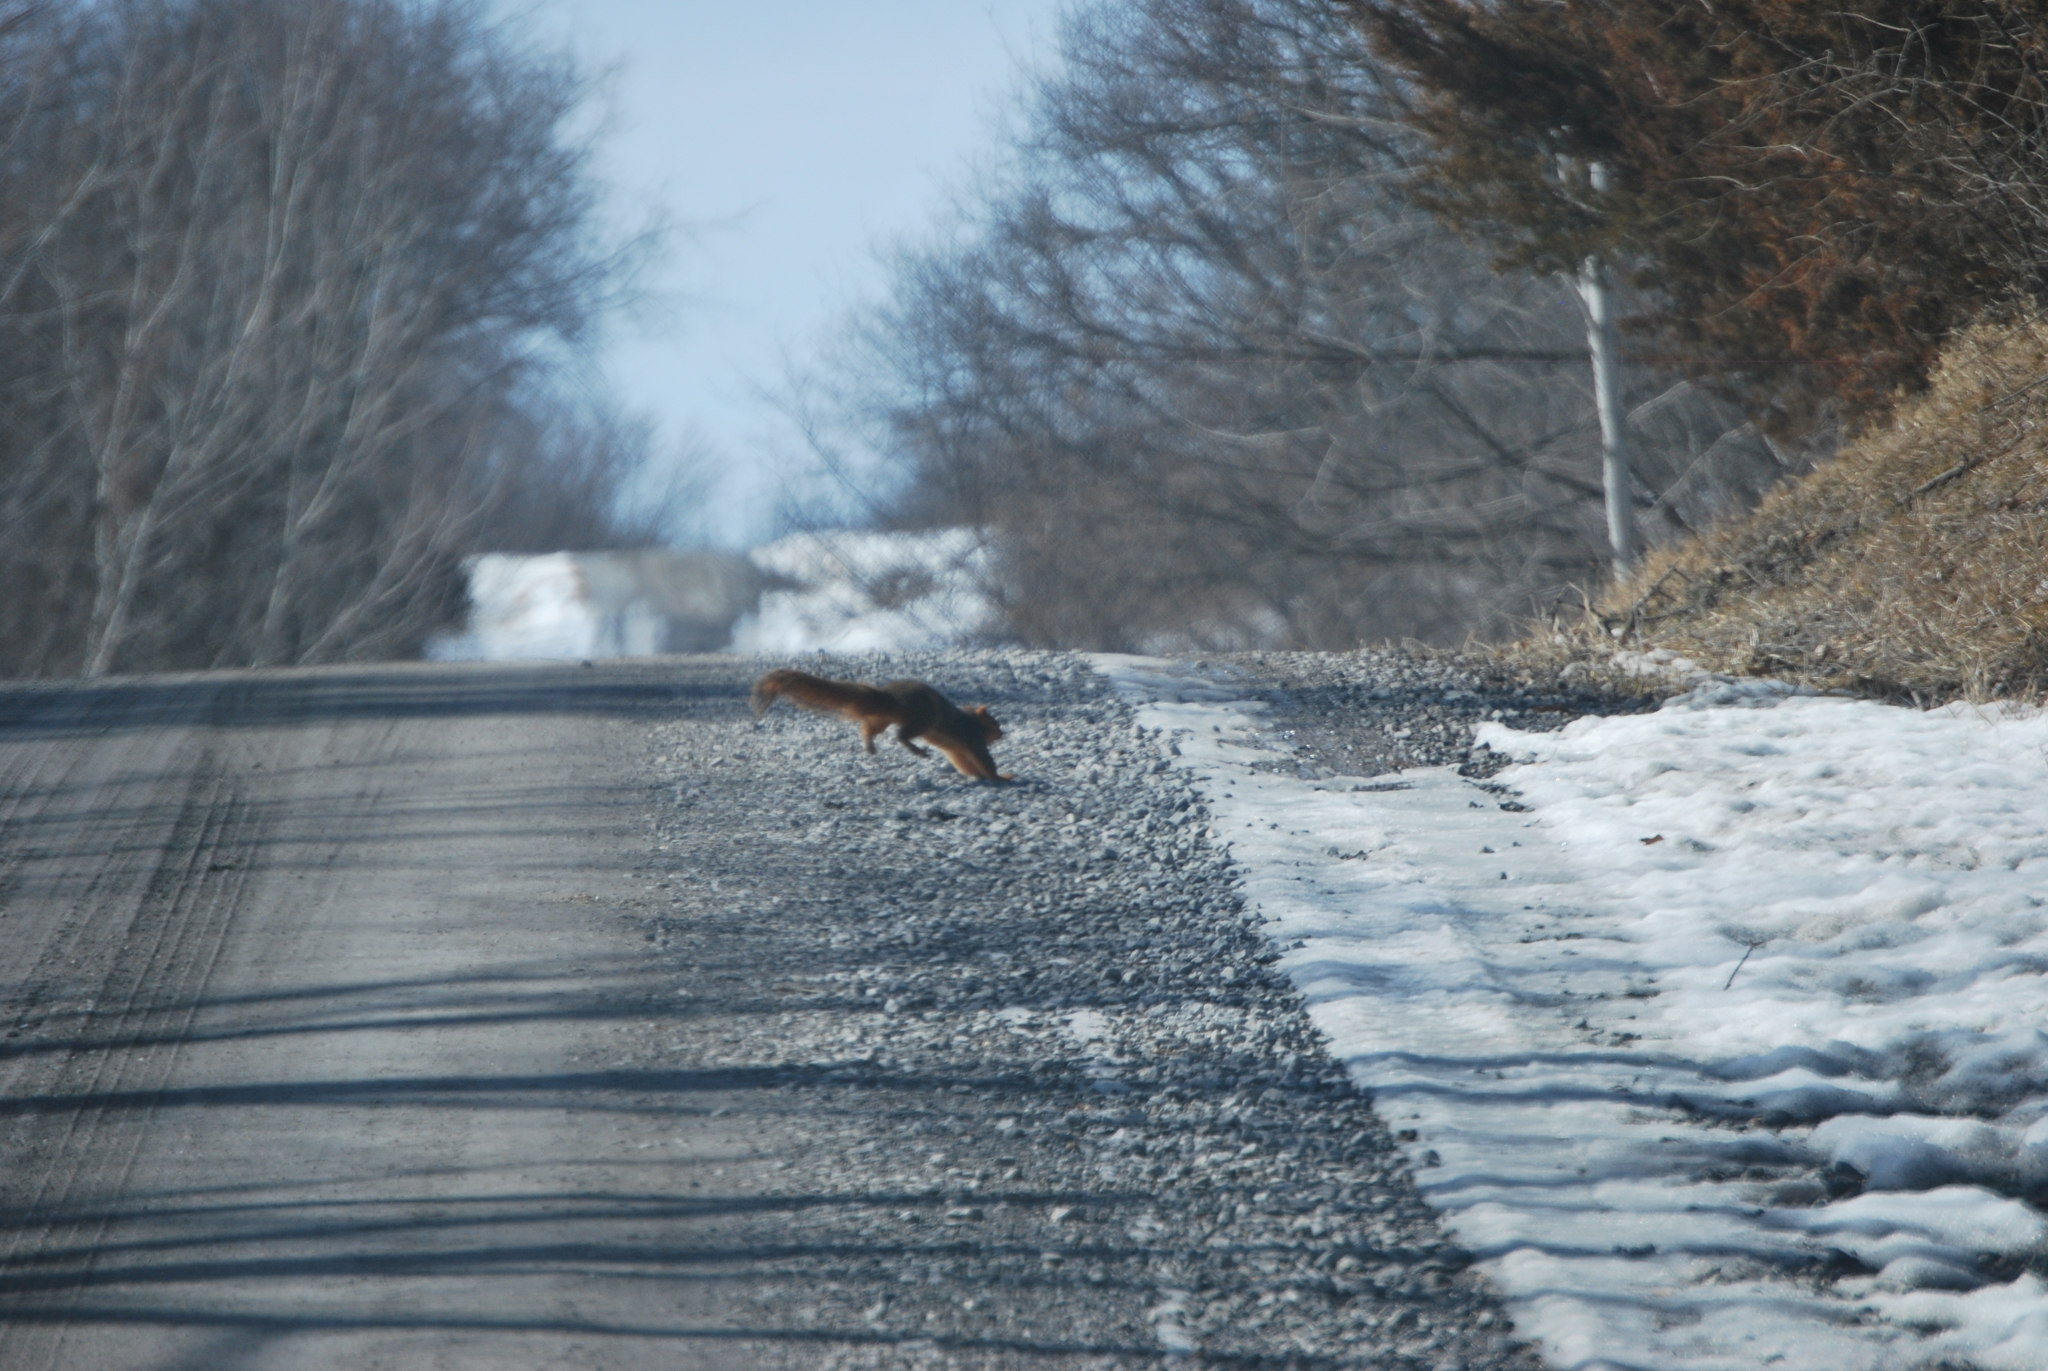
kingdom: Animalia
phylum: Chordata
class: Mammalia
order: Rodentia
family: Sciuridae
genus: Sciurus
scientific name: Sciurus niger
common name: Fox squirrel
